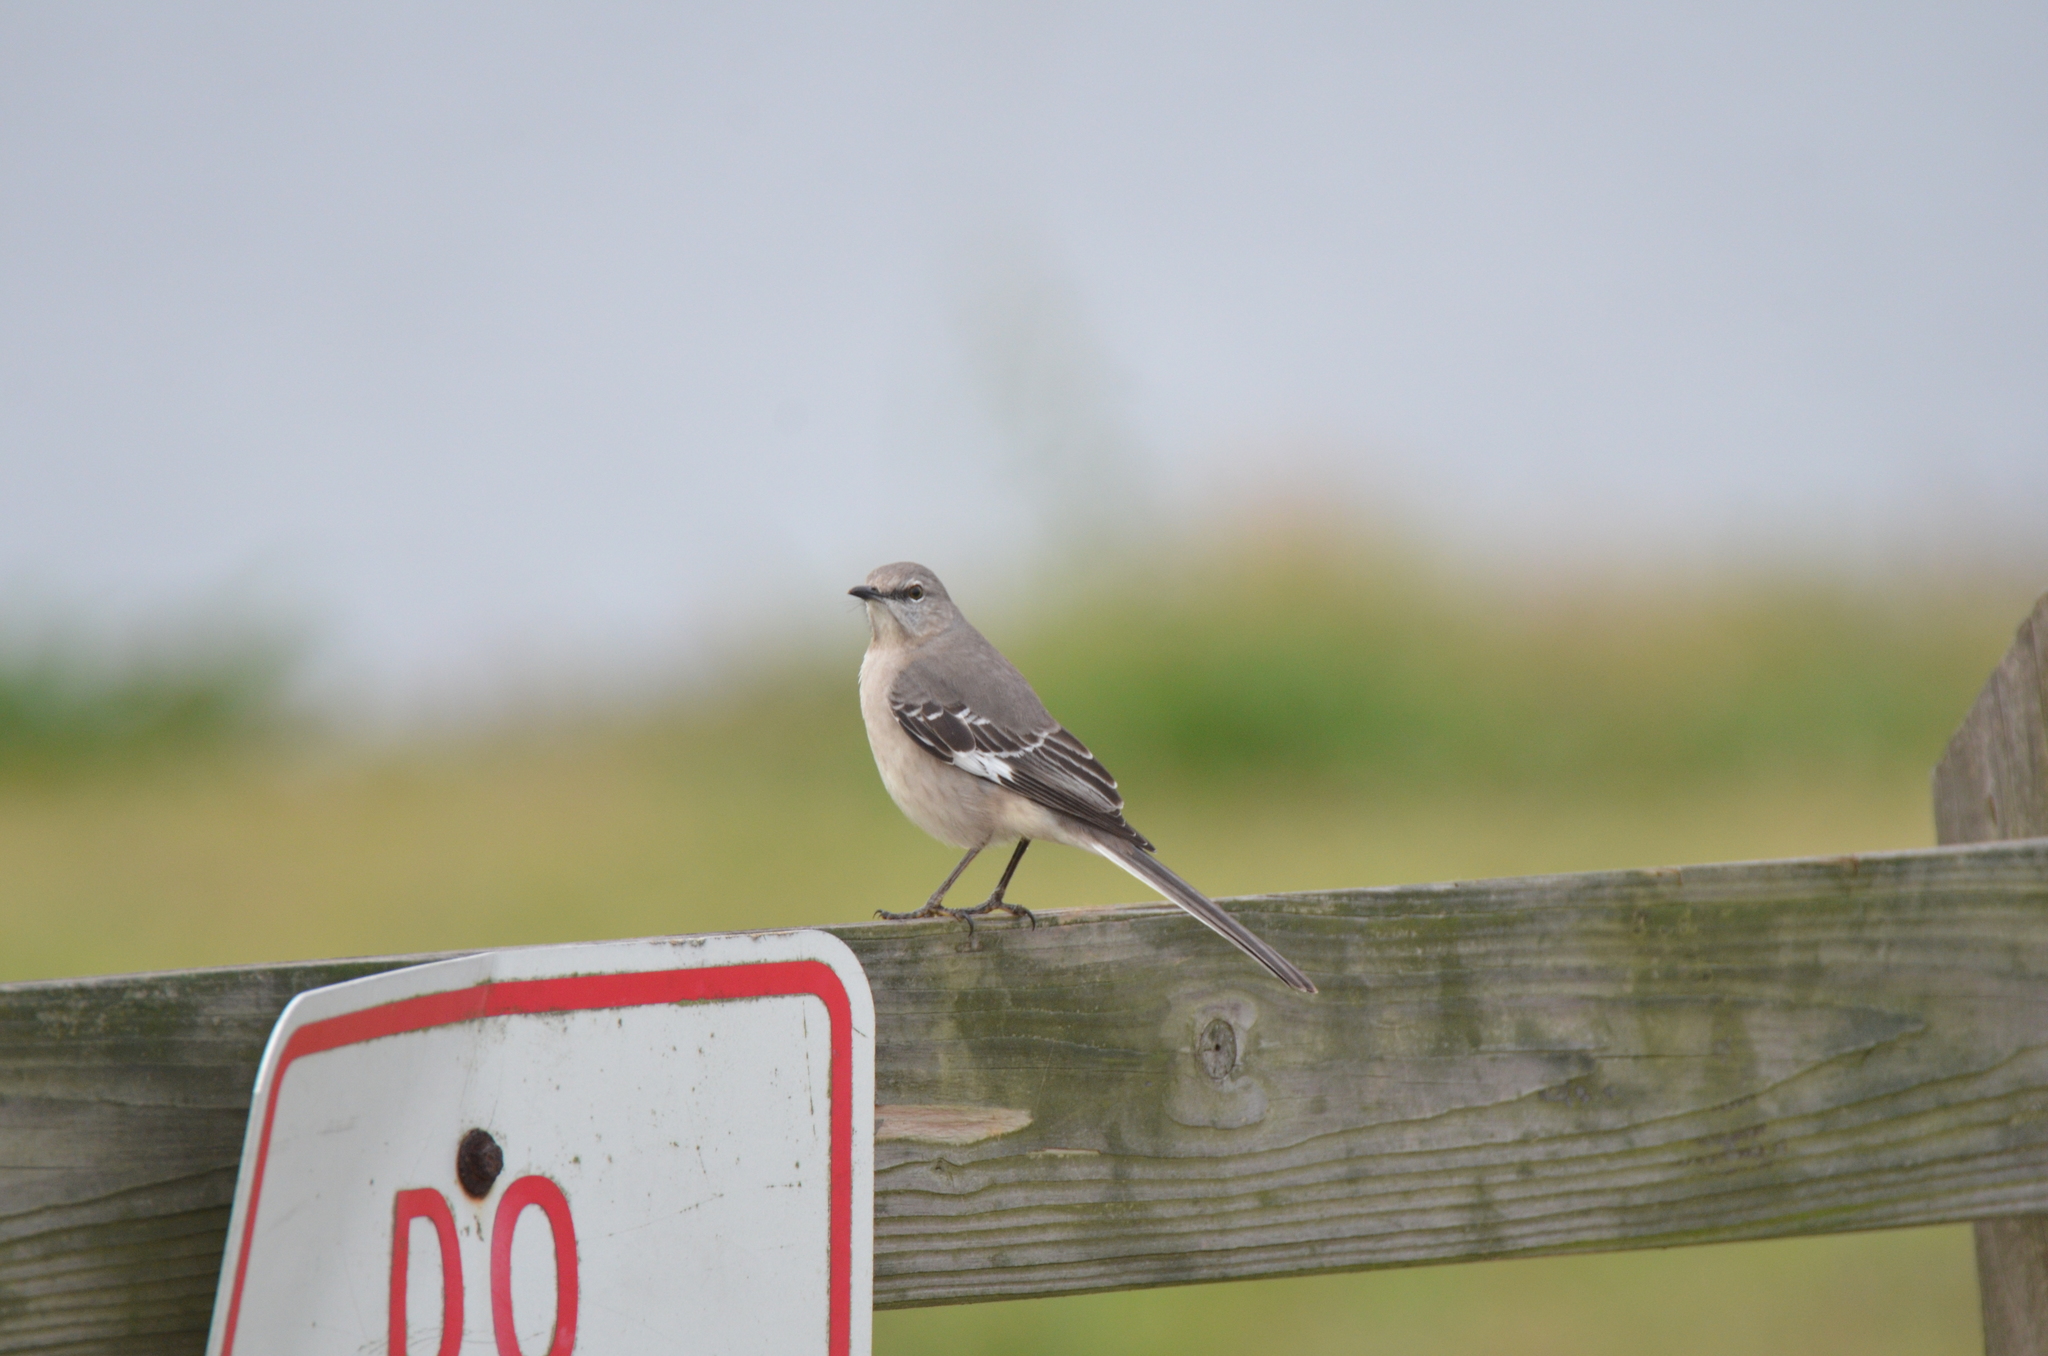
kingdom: Animalia
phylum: Chordata
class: Aves
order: Passeriformes
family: Mimidae
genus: Mimus
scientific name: Mimus polyglottos
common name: Northern mockingbird
